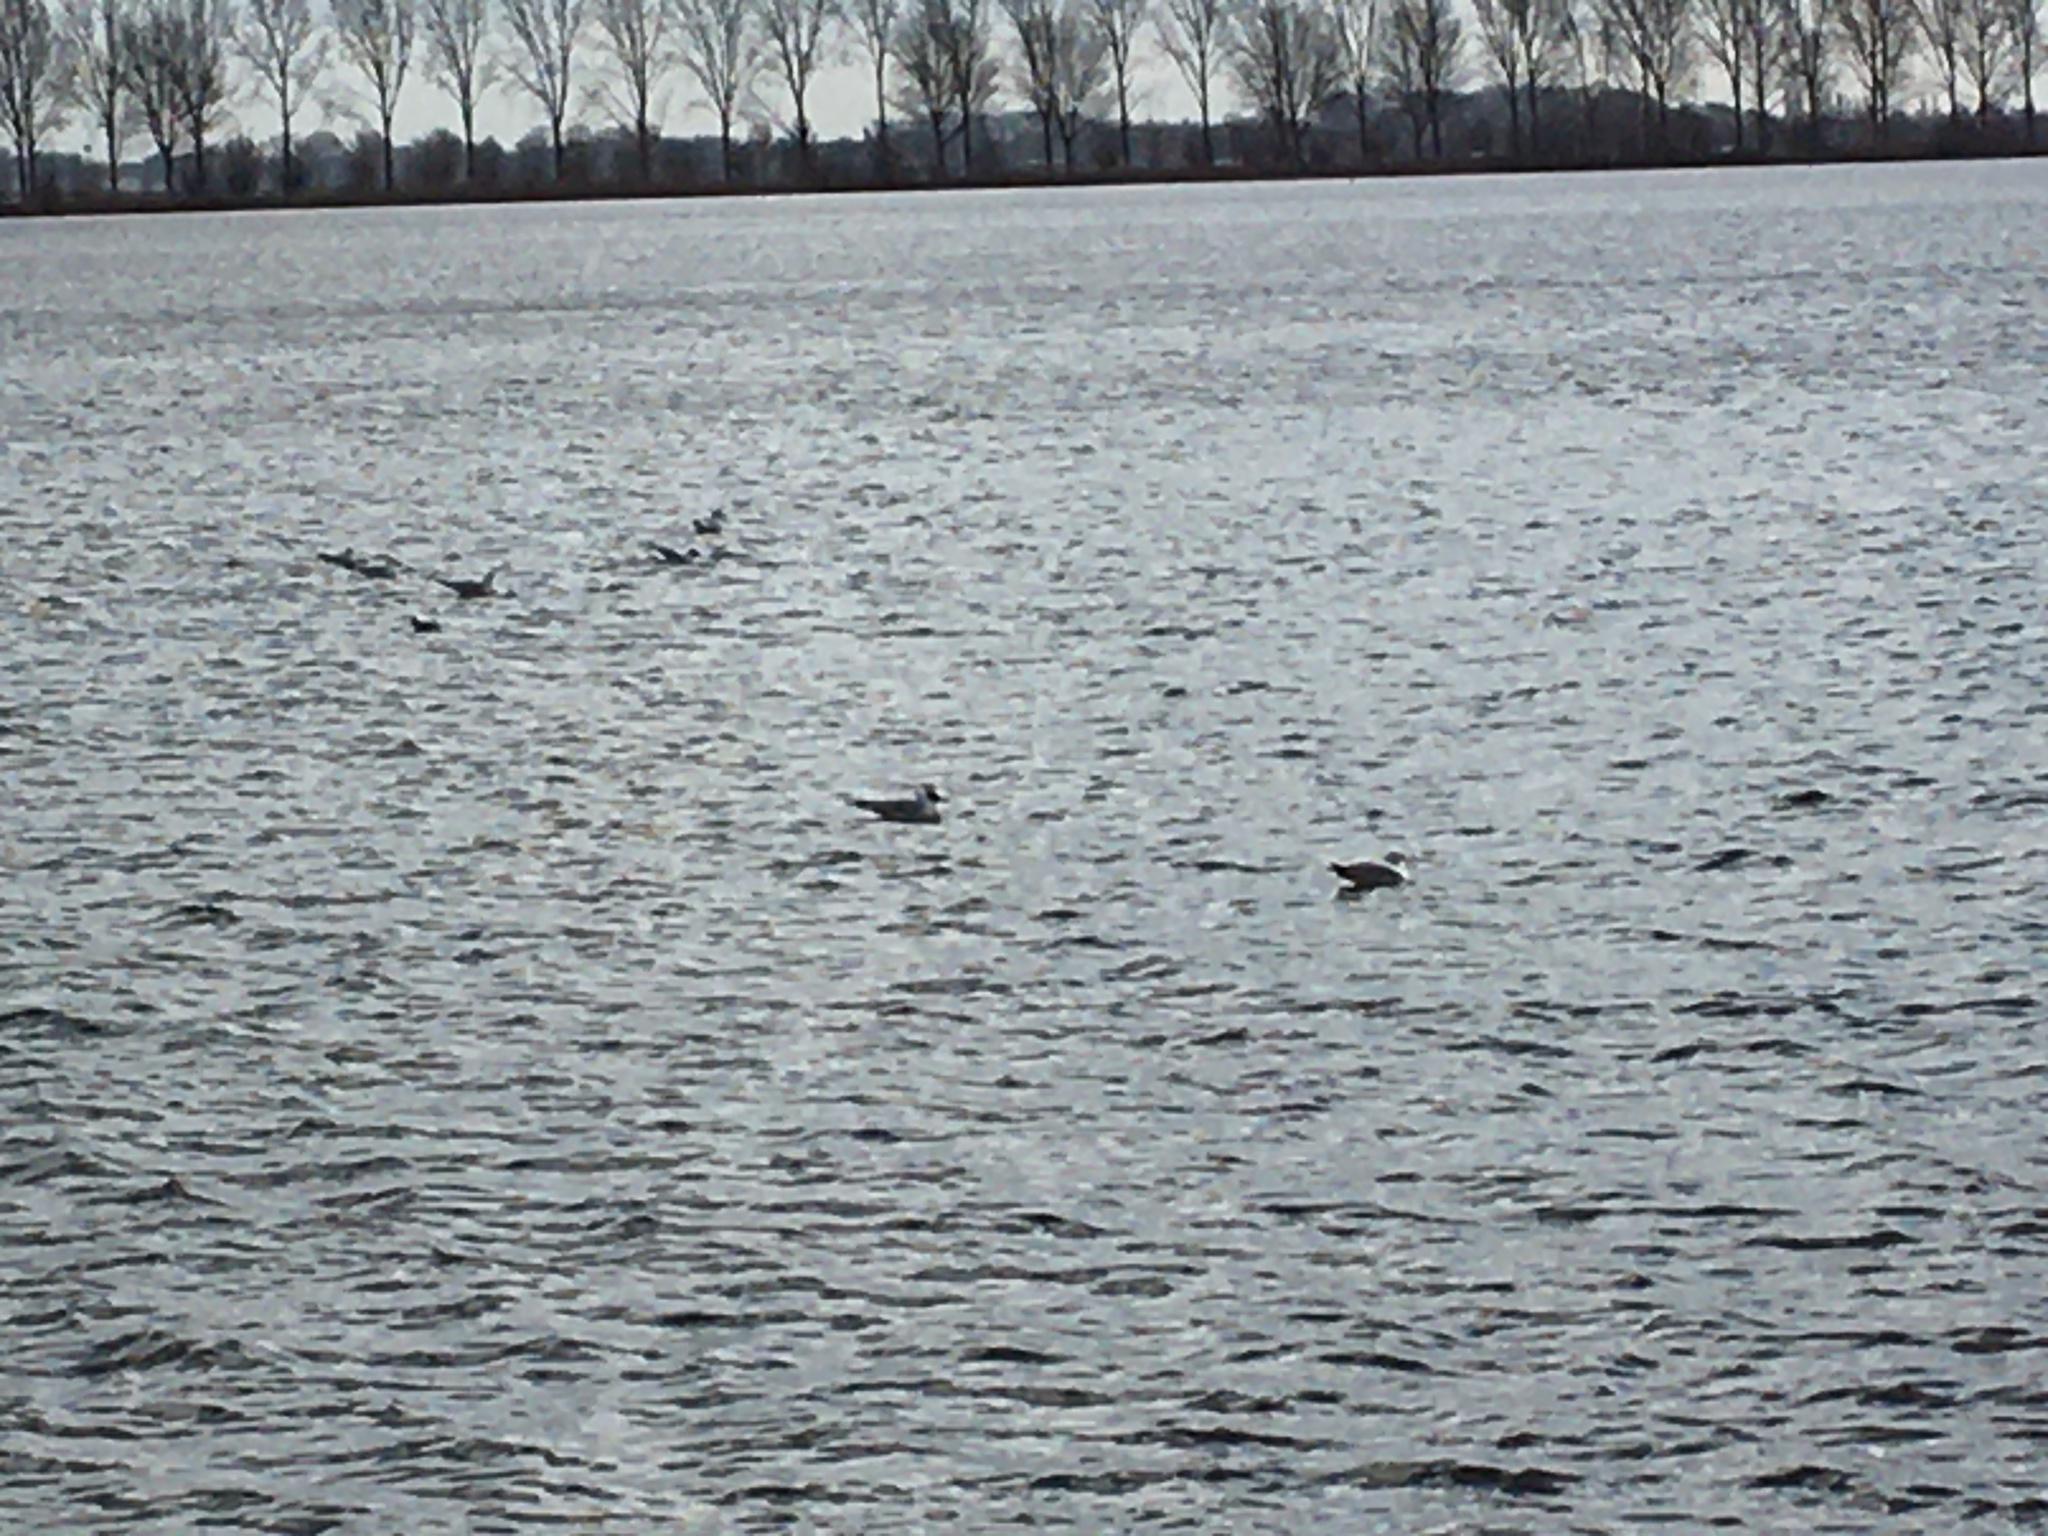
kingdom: Animalia
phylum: Chordata
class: Aves
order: Charadriiformes
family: Laridae
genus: Chroicocephalus
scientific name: Chroicocephalus ridibundus
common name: Black-headed gull
